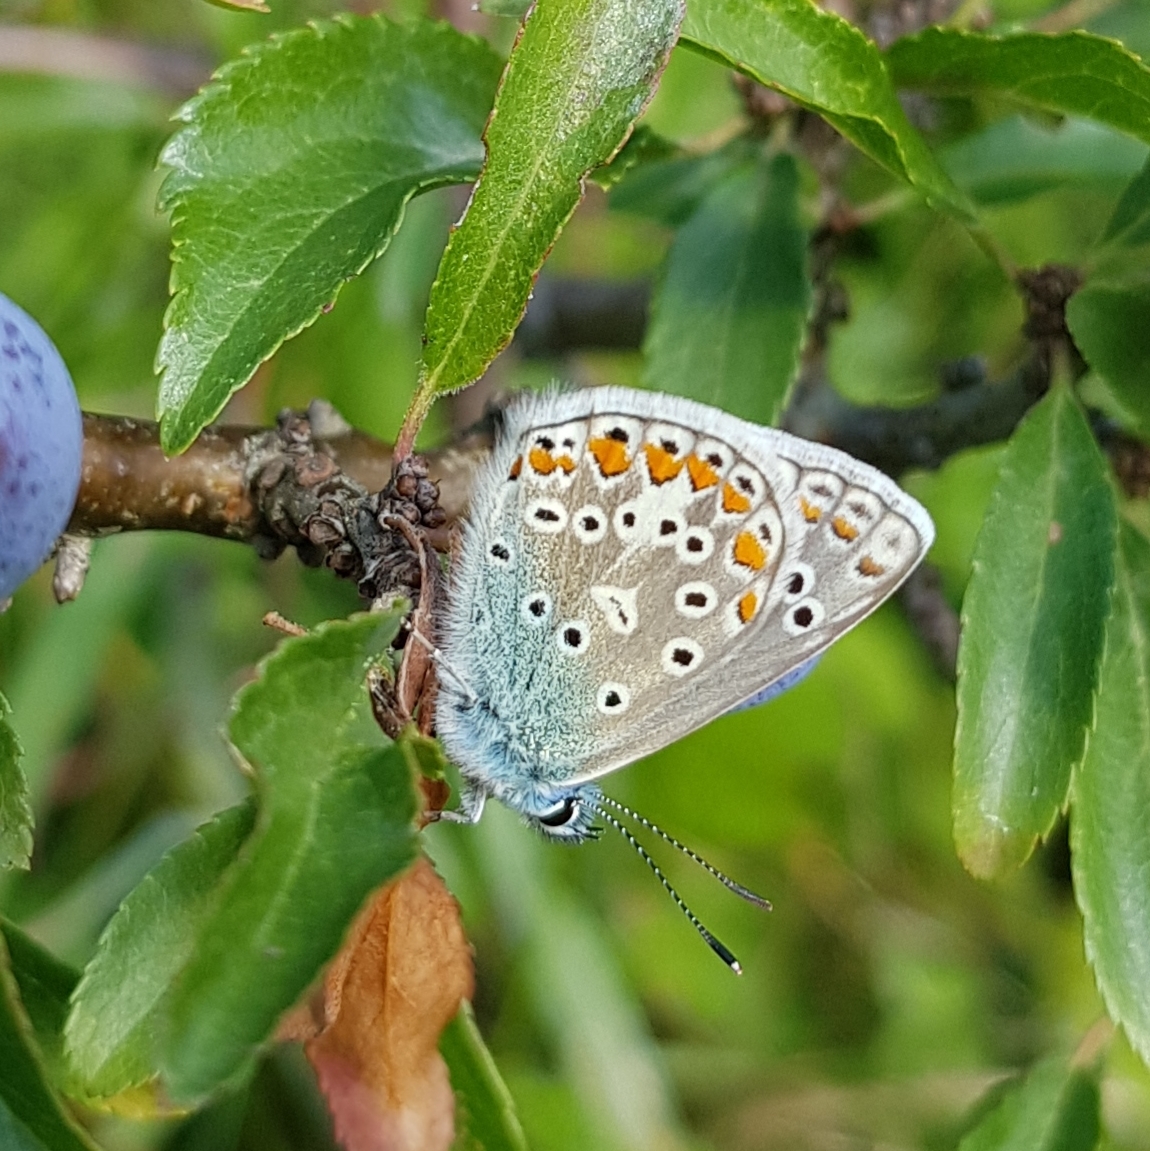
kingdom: Animalia
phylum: Arthropoda
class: Insecta
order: Lepidoptera
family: Lycaenidae
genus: Polyommatus
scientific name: Polyommatus icarus
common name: Common blue
